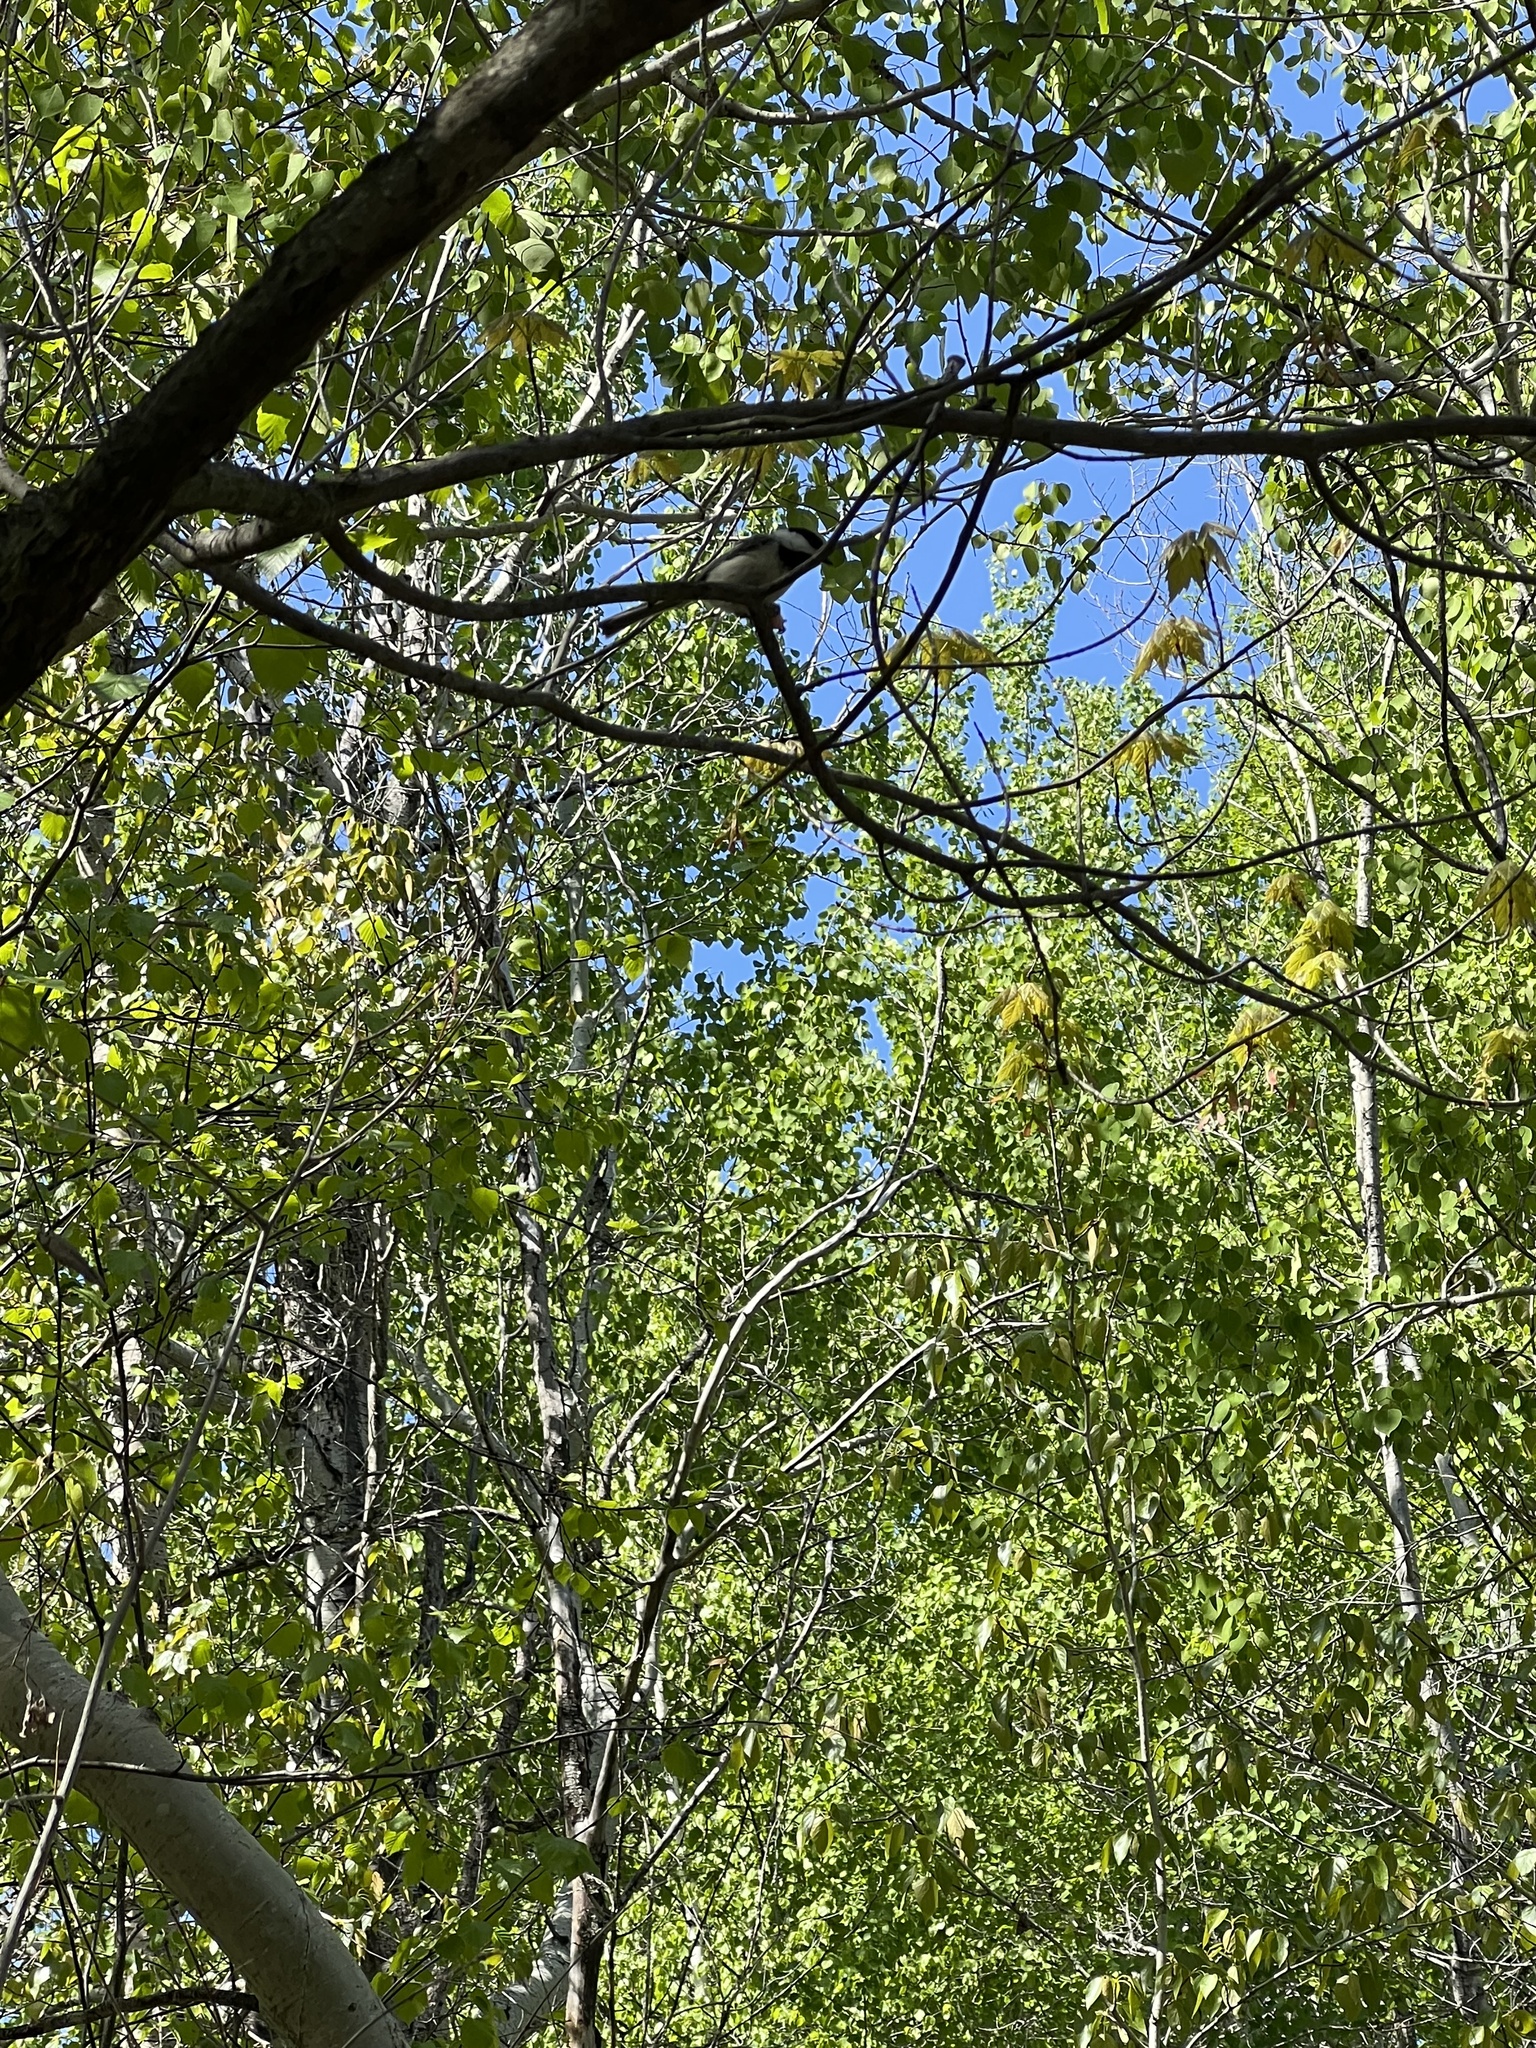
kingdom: Animalia
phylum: Chordata
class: Aves
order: Passeriformes
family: Paridae
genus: Poecile
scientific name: Poecile atricapillus
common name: Black-capped chickadee
